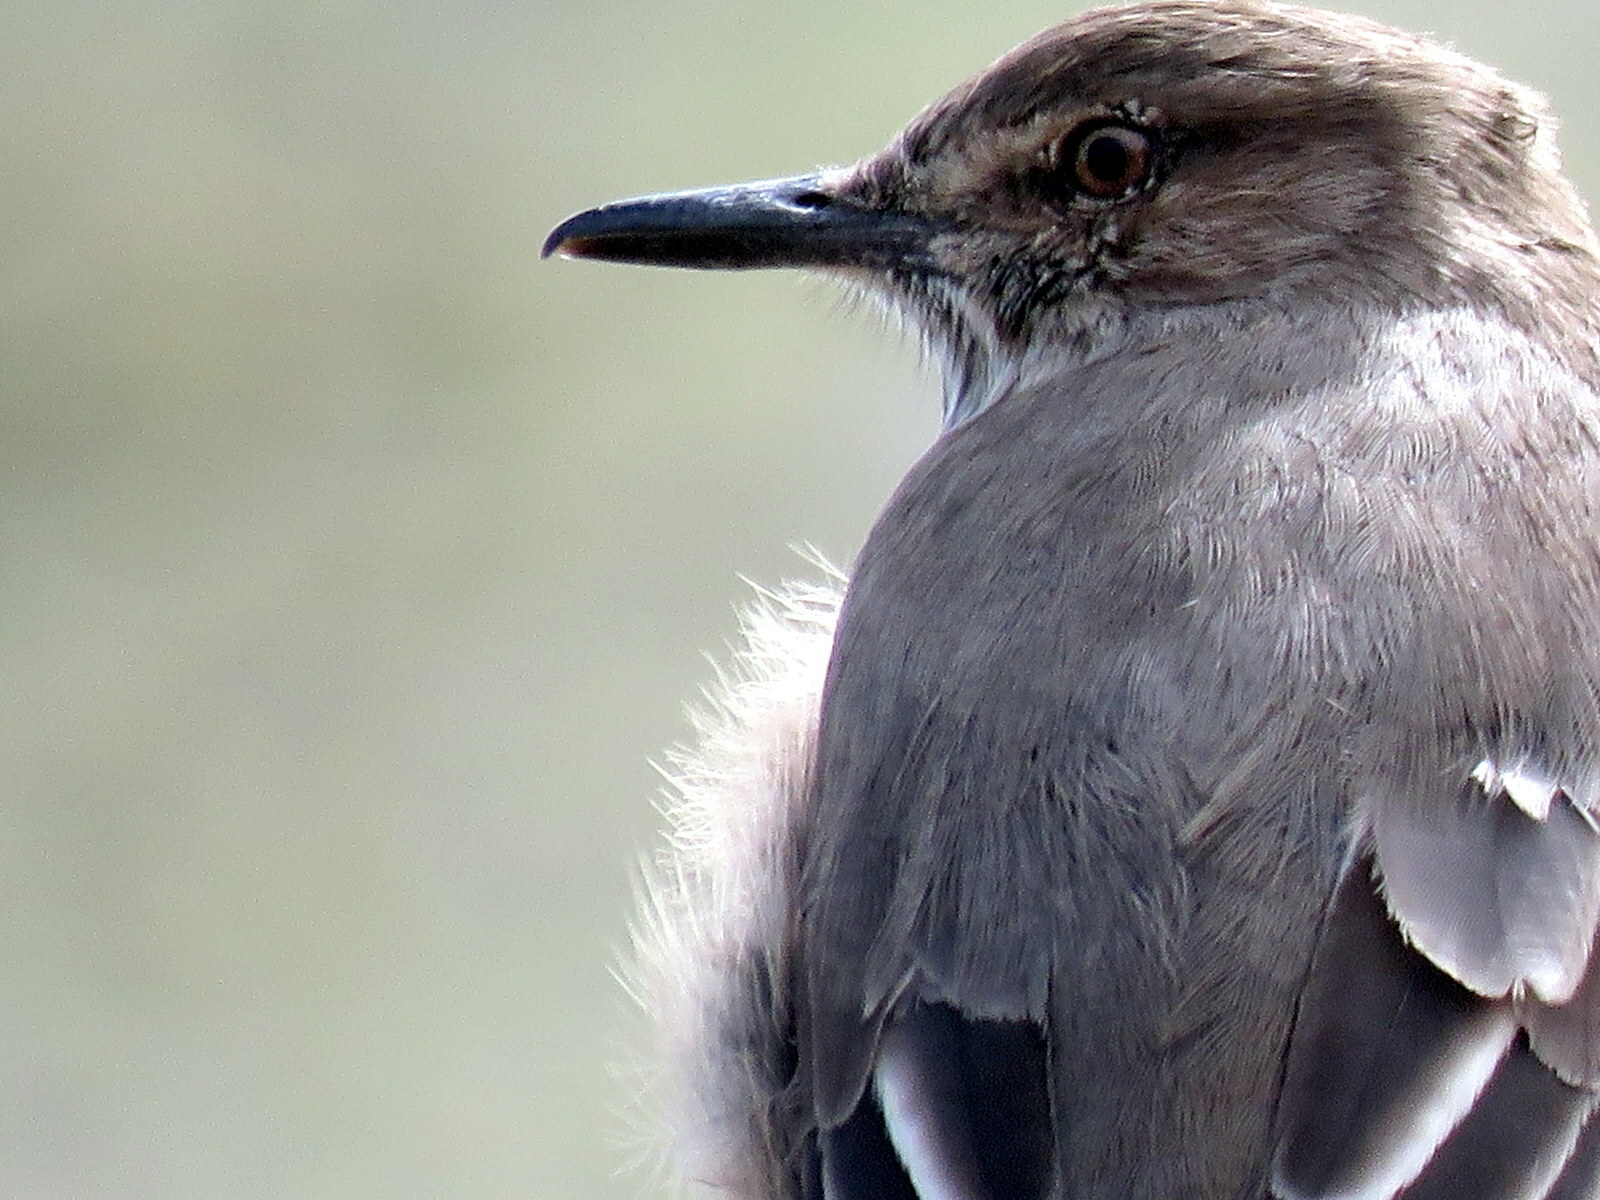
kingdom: Animalia
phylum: Chordata
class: Aves
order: Passeriformes
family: Tyrannidae
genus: Agriornis
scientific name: Agriornis montanus
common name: Black-billed shrike-tyrant
